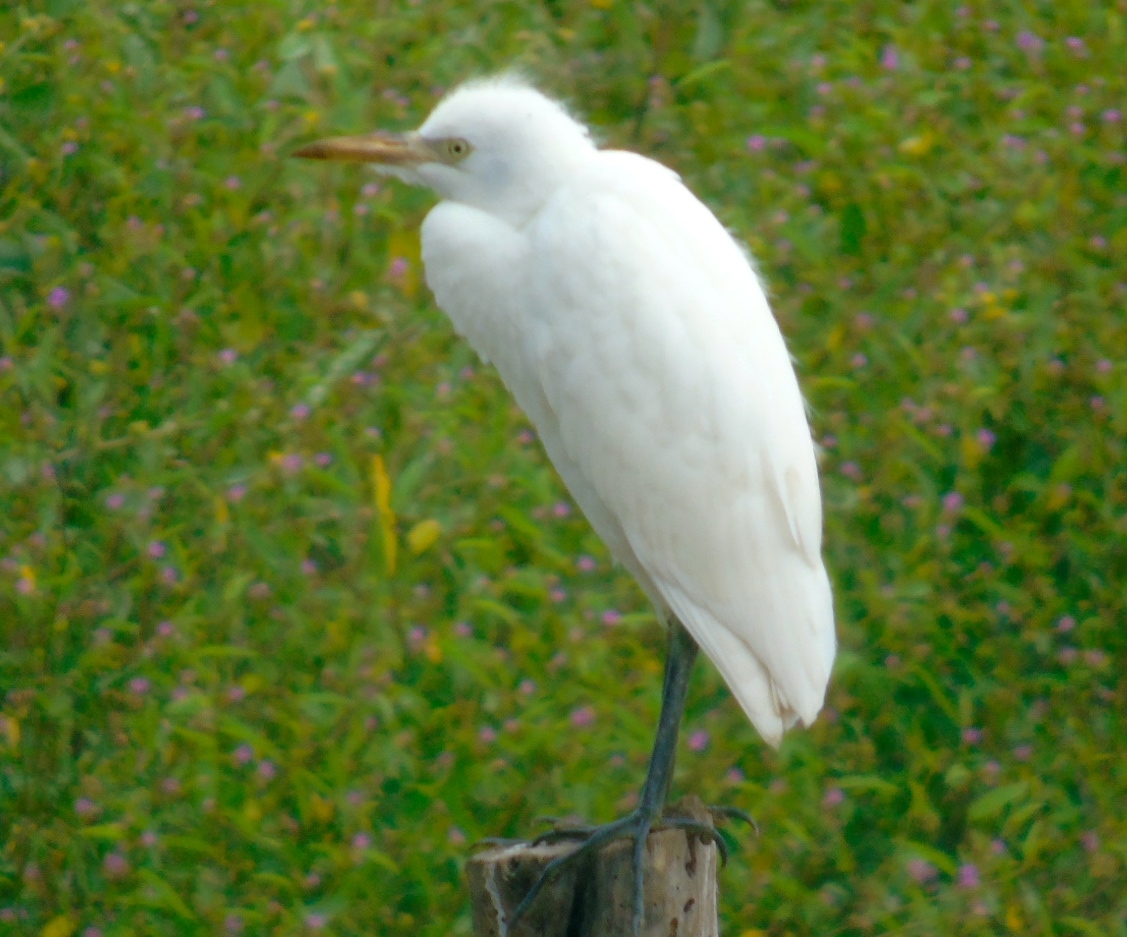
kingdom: Animalia
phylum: Chordata
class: Aves
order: Pelecaniformes
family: Ardeidae
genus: Bubulcus
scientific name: Bubulcus ibis
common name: Cattle egret
